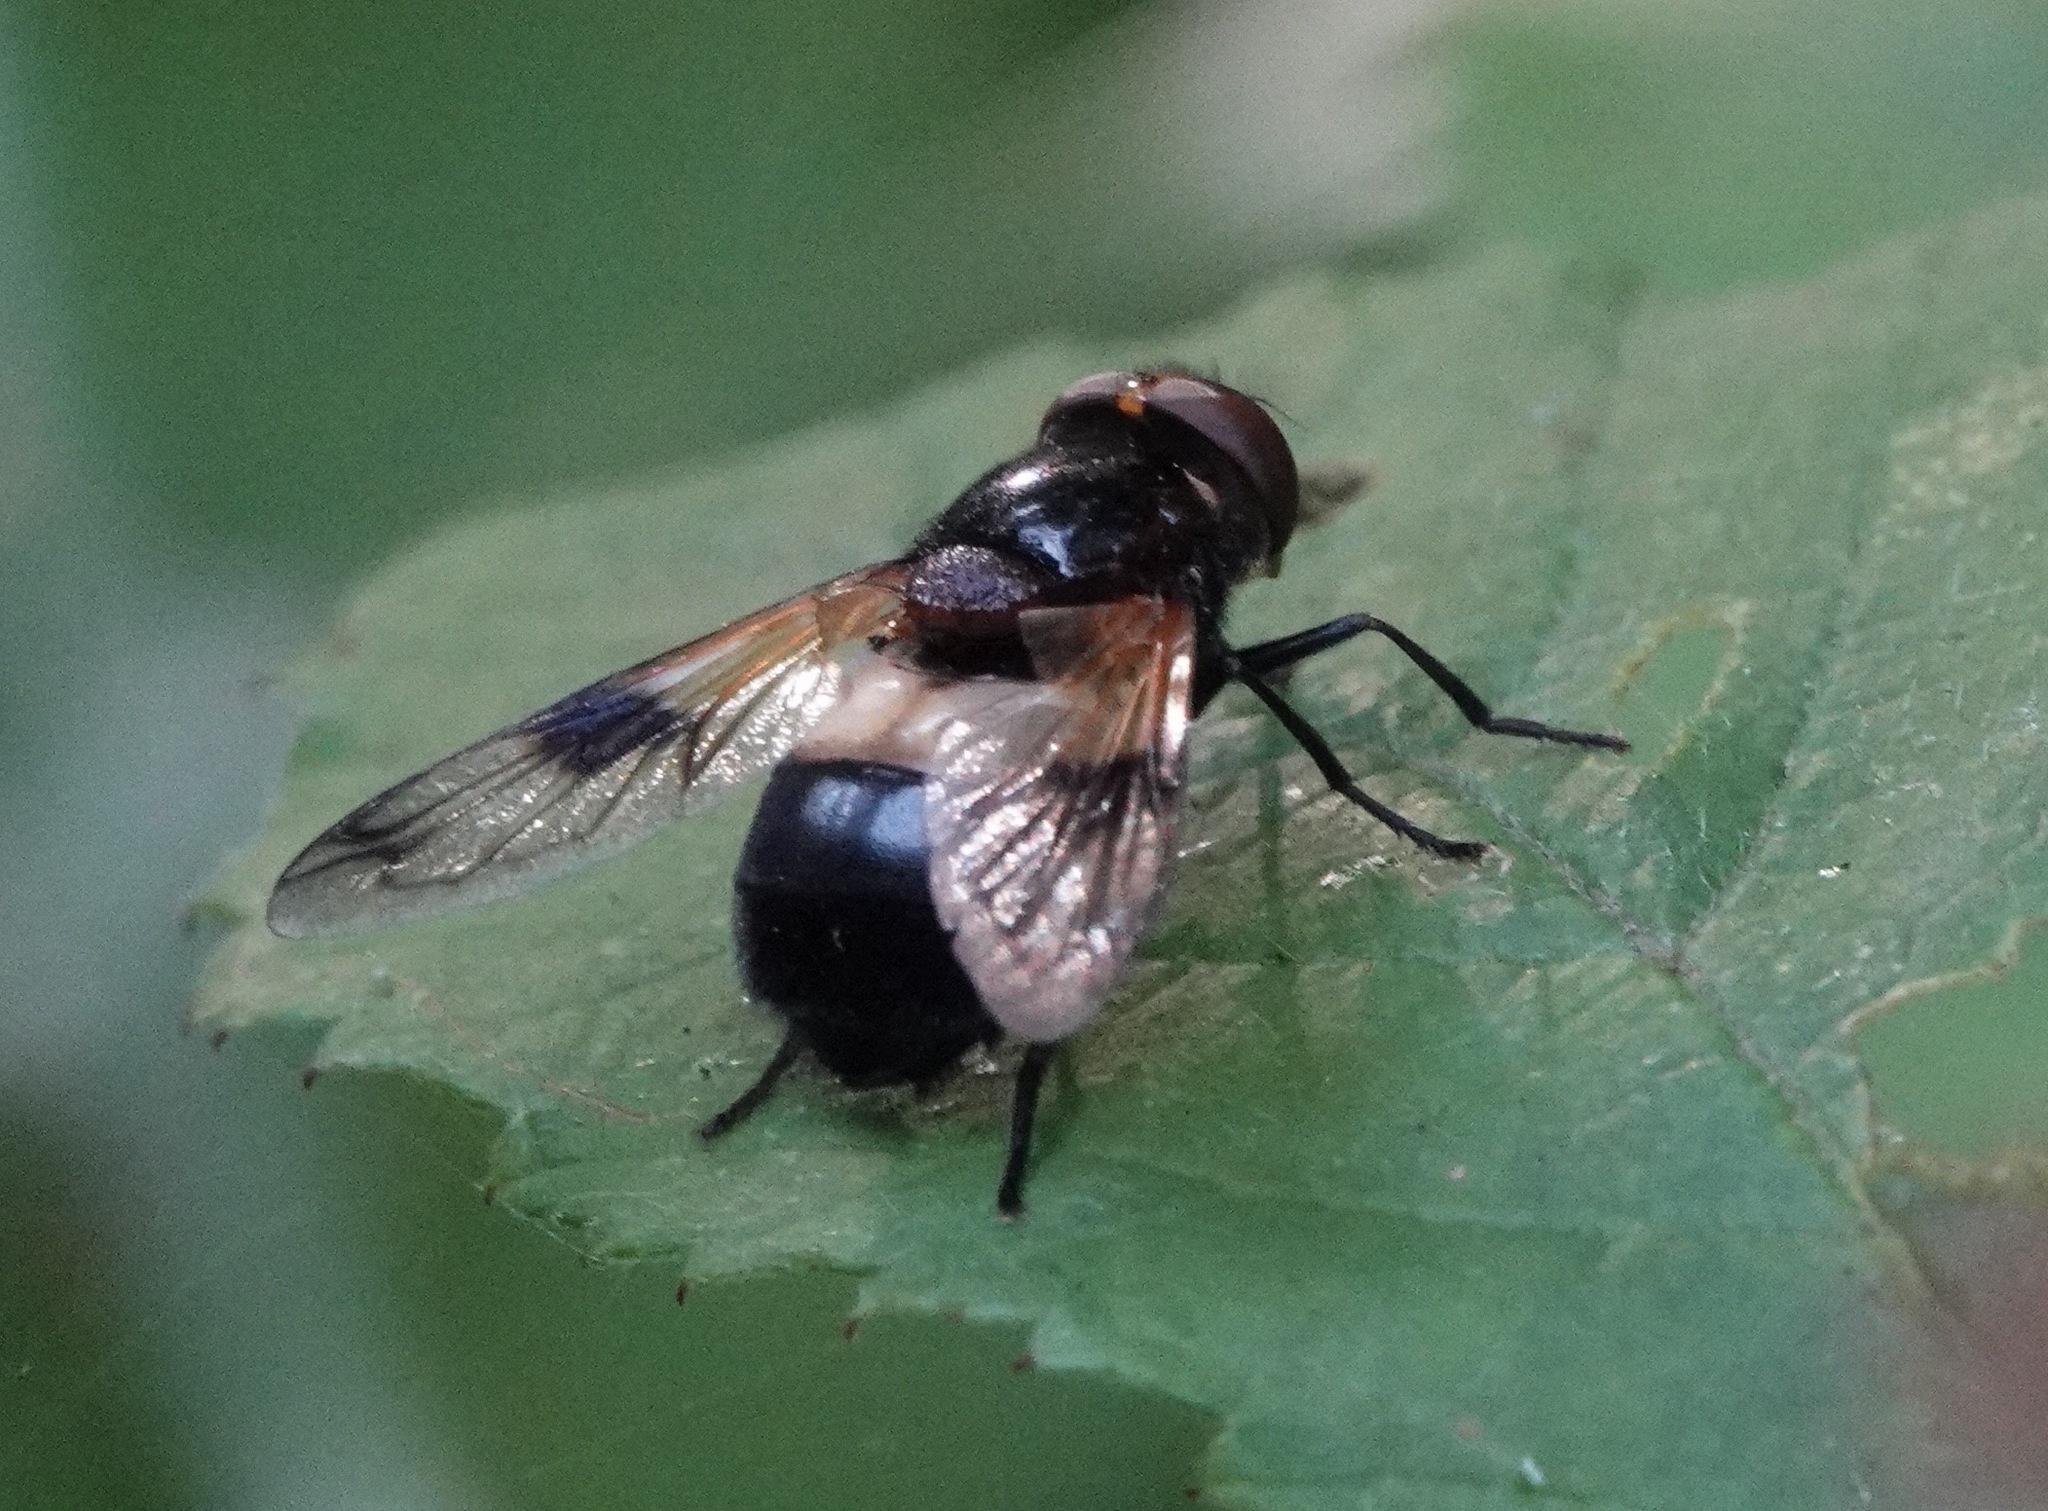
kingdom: Animalia
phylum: Arthropoda
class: Insecta
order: Diptera
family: Syrphidae
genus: Volucella
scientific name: Volucella pellucens
